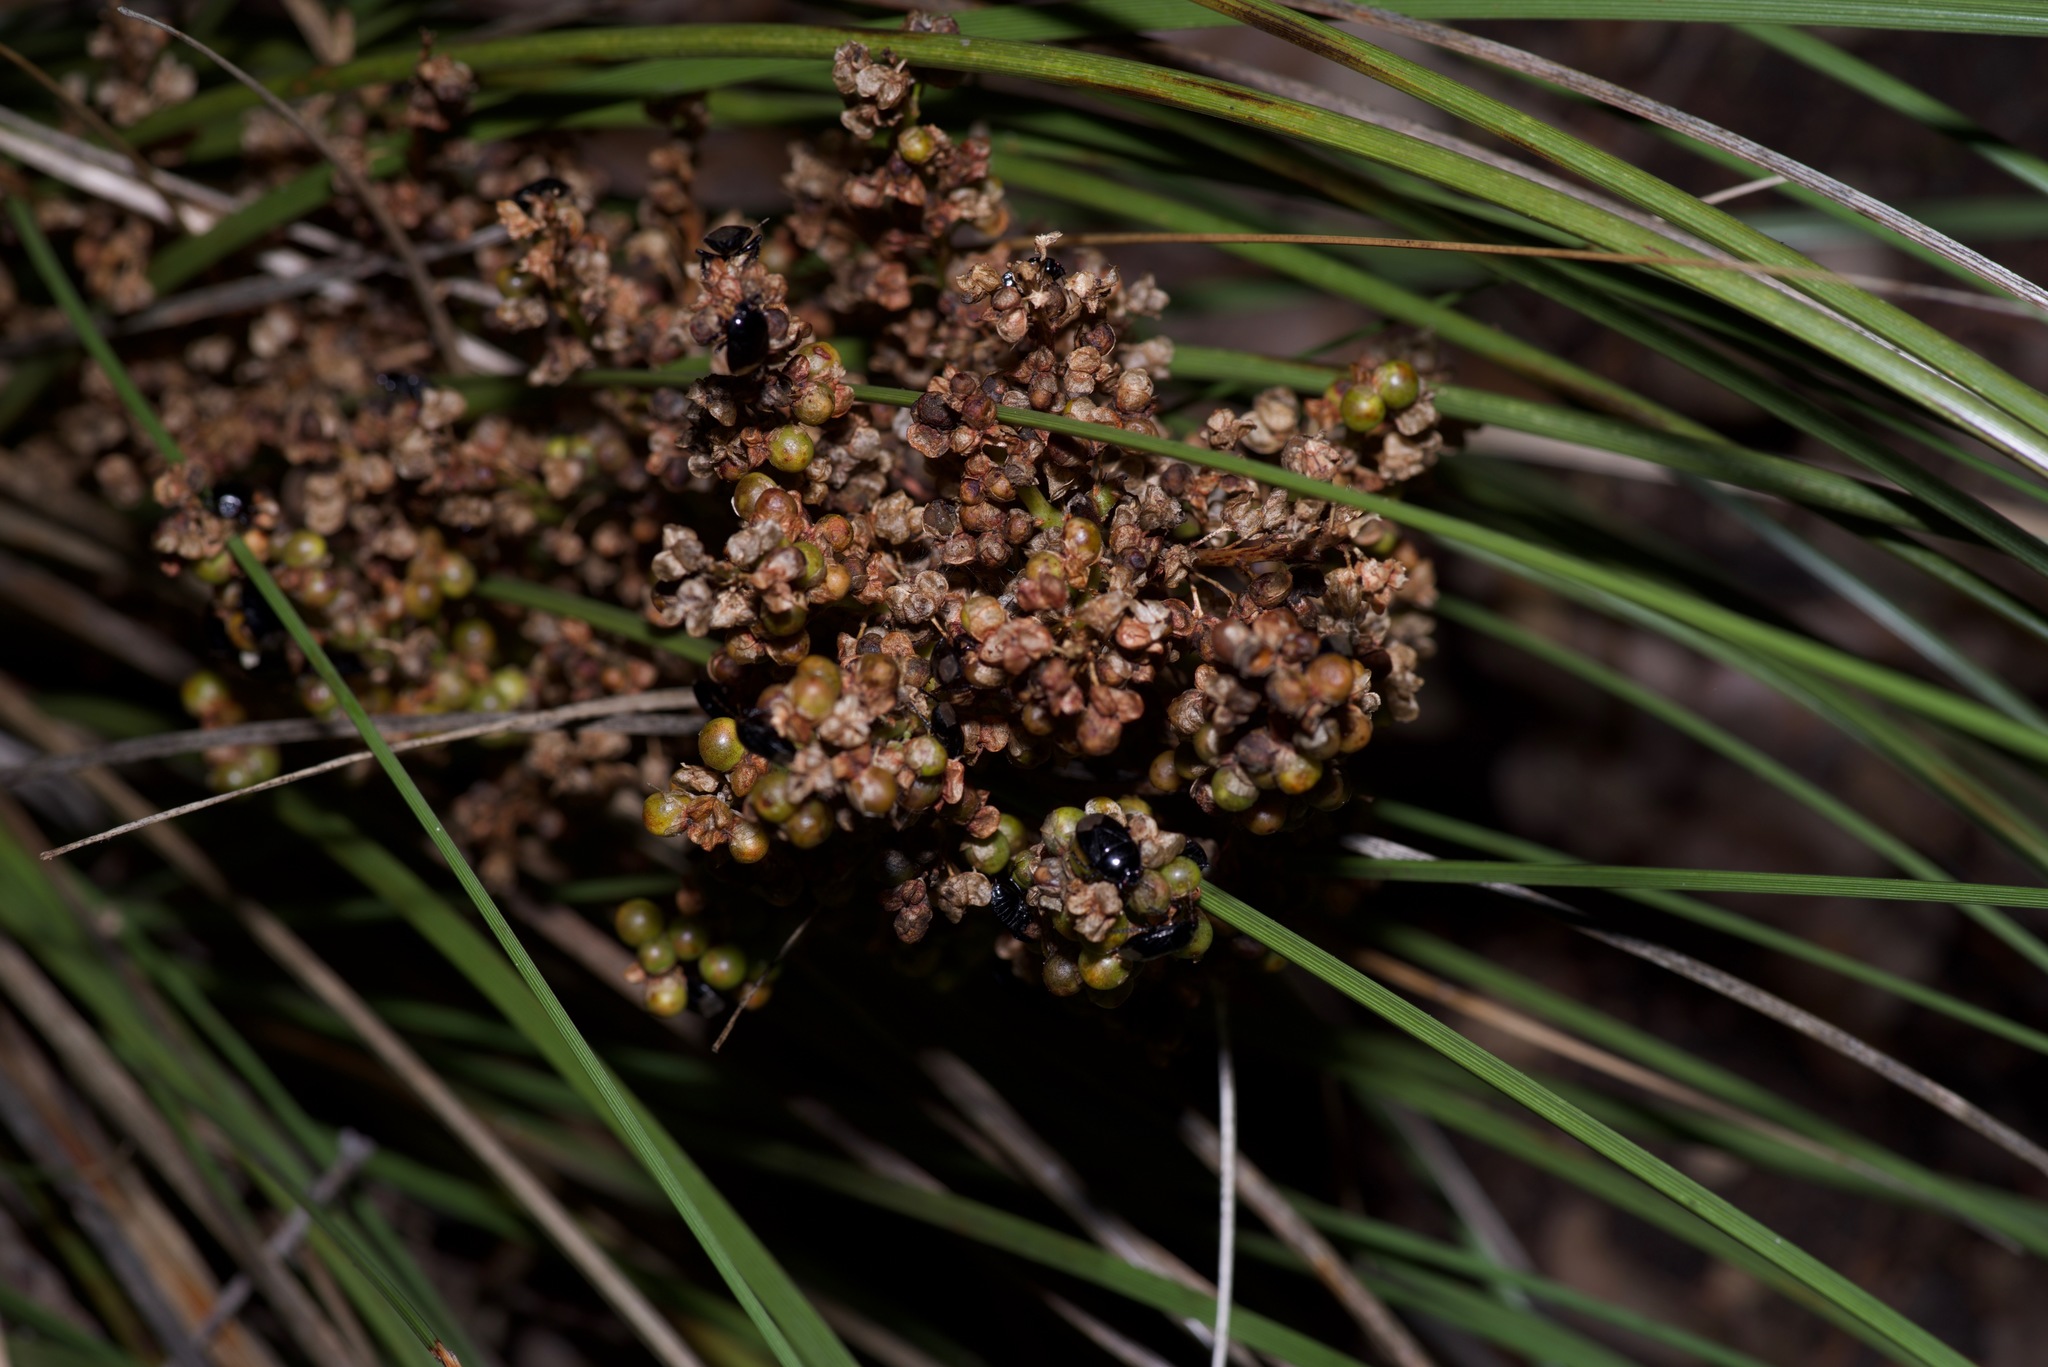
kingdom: Plantae
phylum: Tracheophyta
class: Liliopsida
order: Asparagales
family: Asparagaceae
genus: Nolina
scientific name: Nolina texana
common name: Texas sacahuiste
